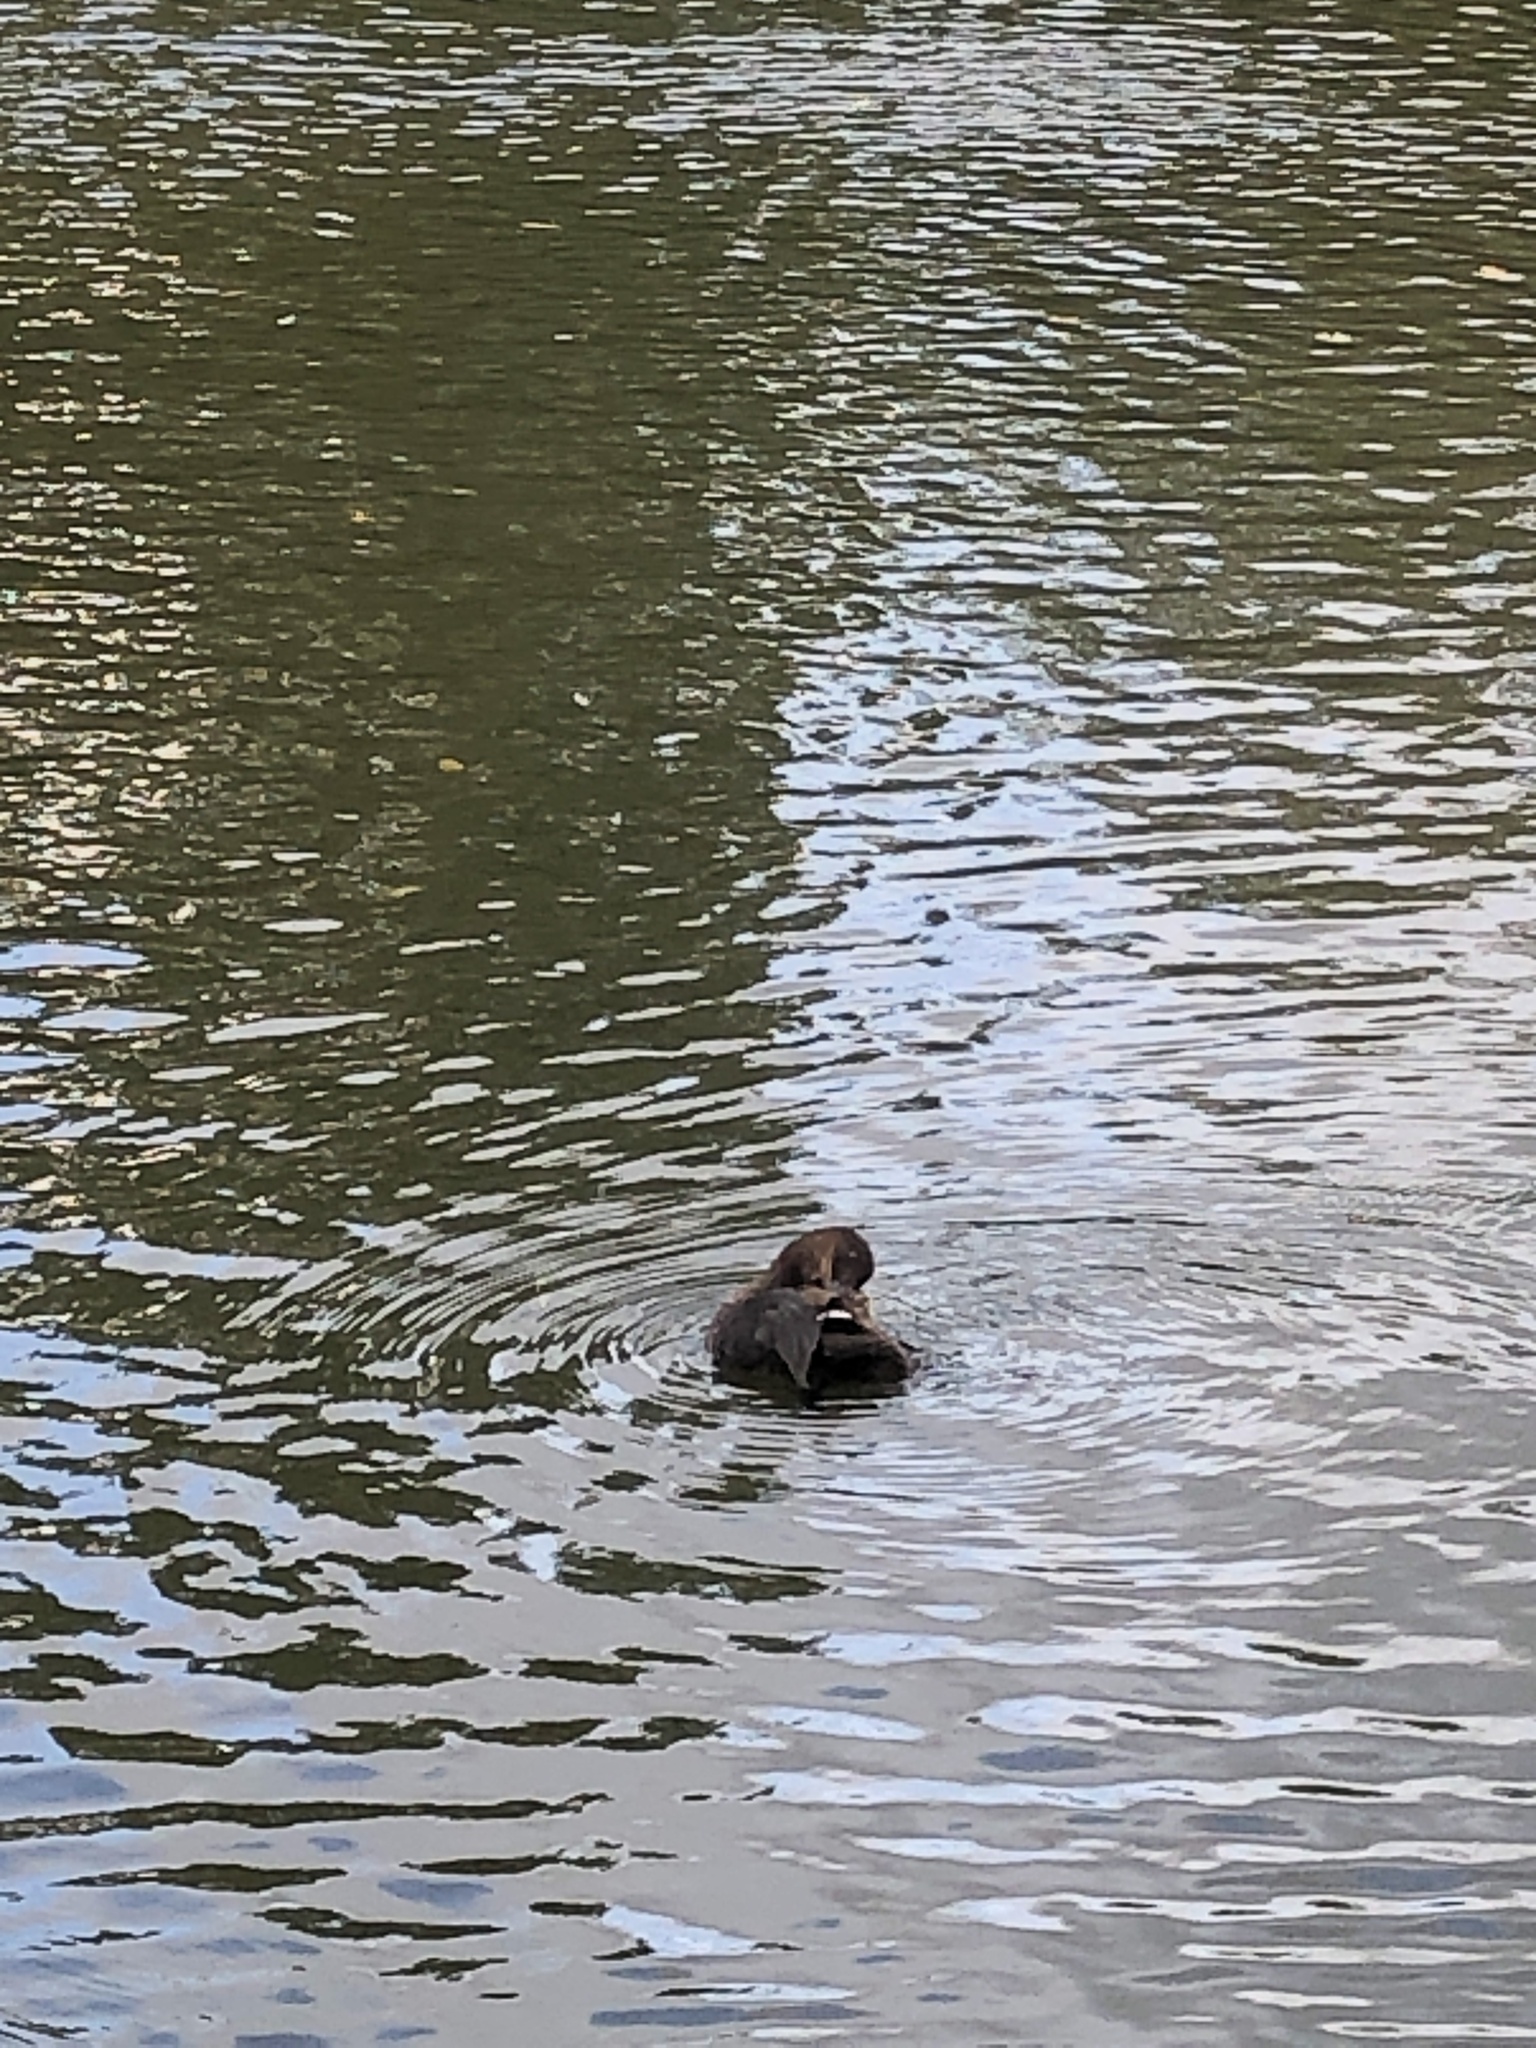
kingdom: Animalia
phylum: Chordata
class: Aves
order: Podicipediformes
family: Podicipedidae
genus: Tachybaptus
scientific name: Tachybaptus ruficollis
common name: Little grebe
